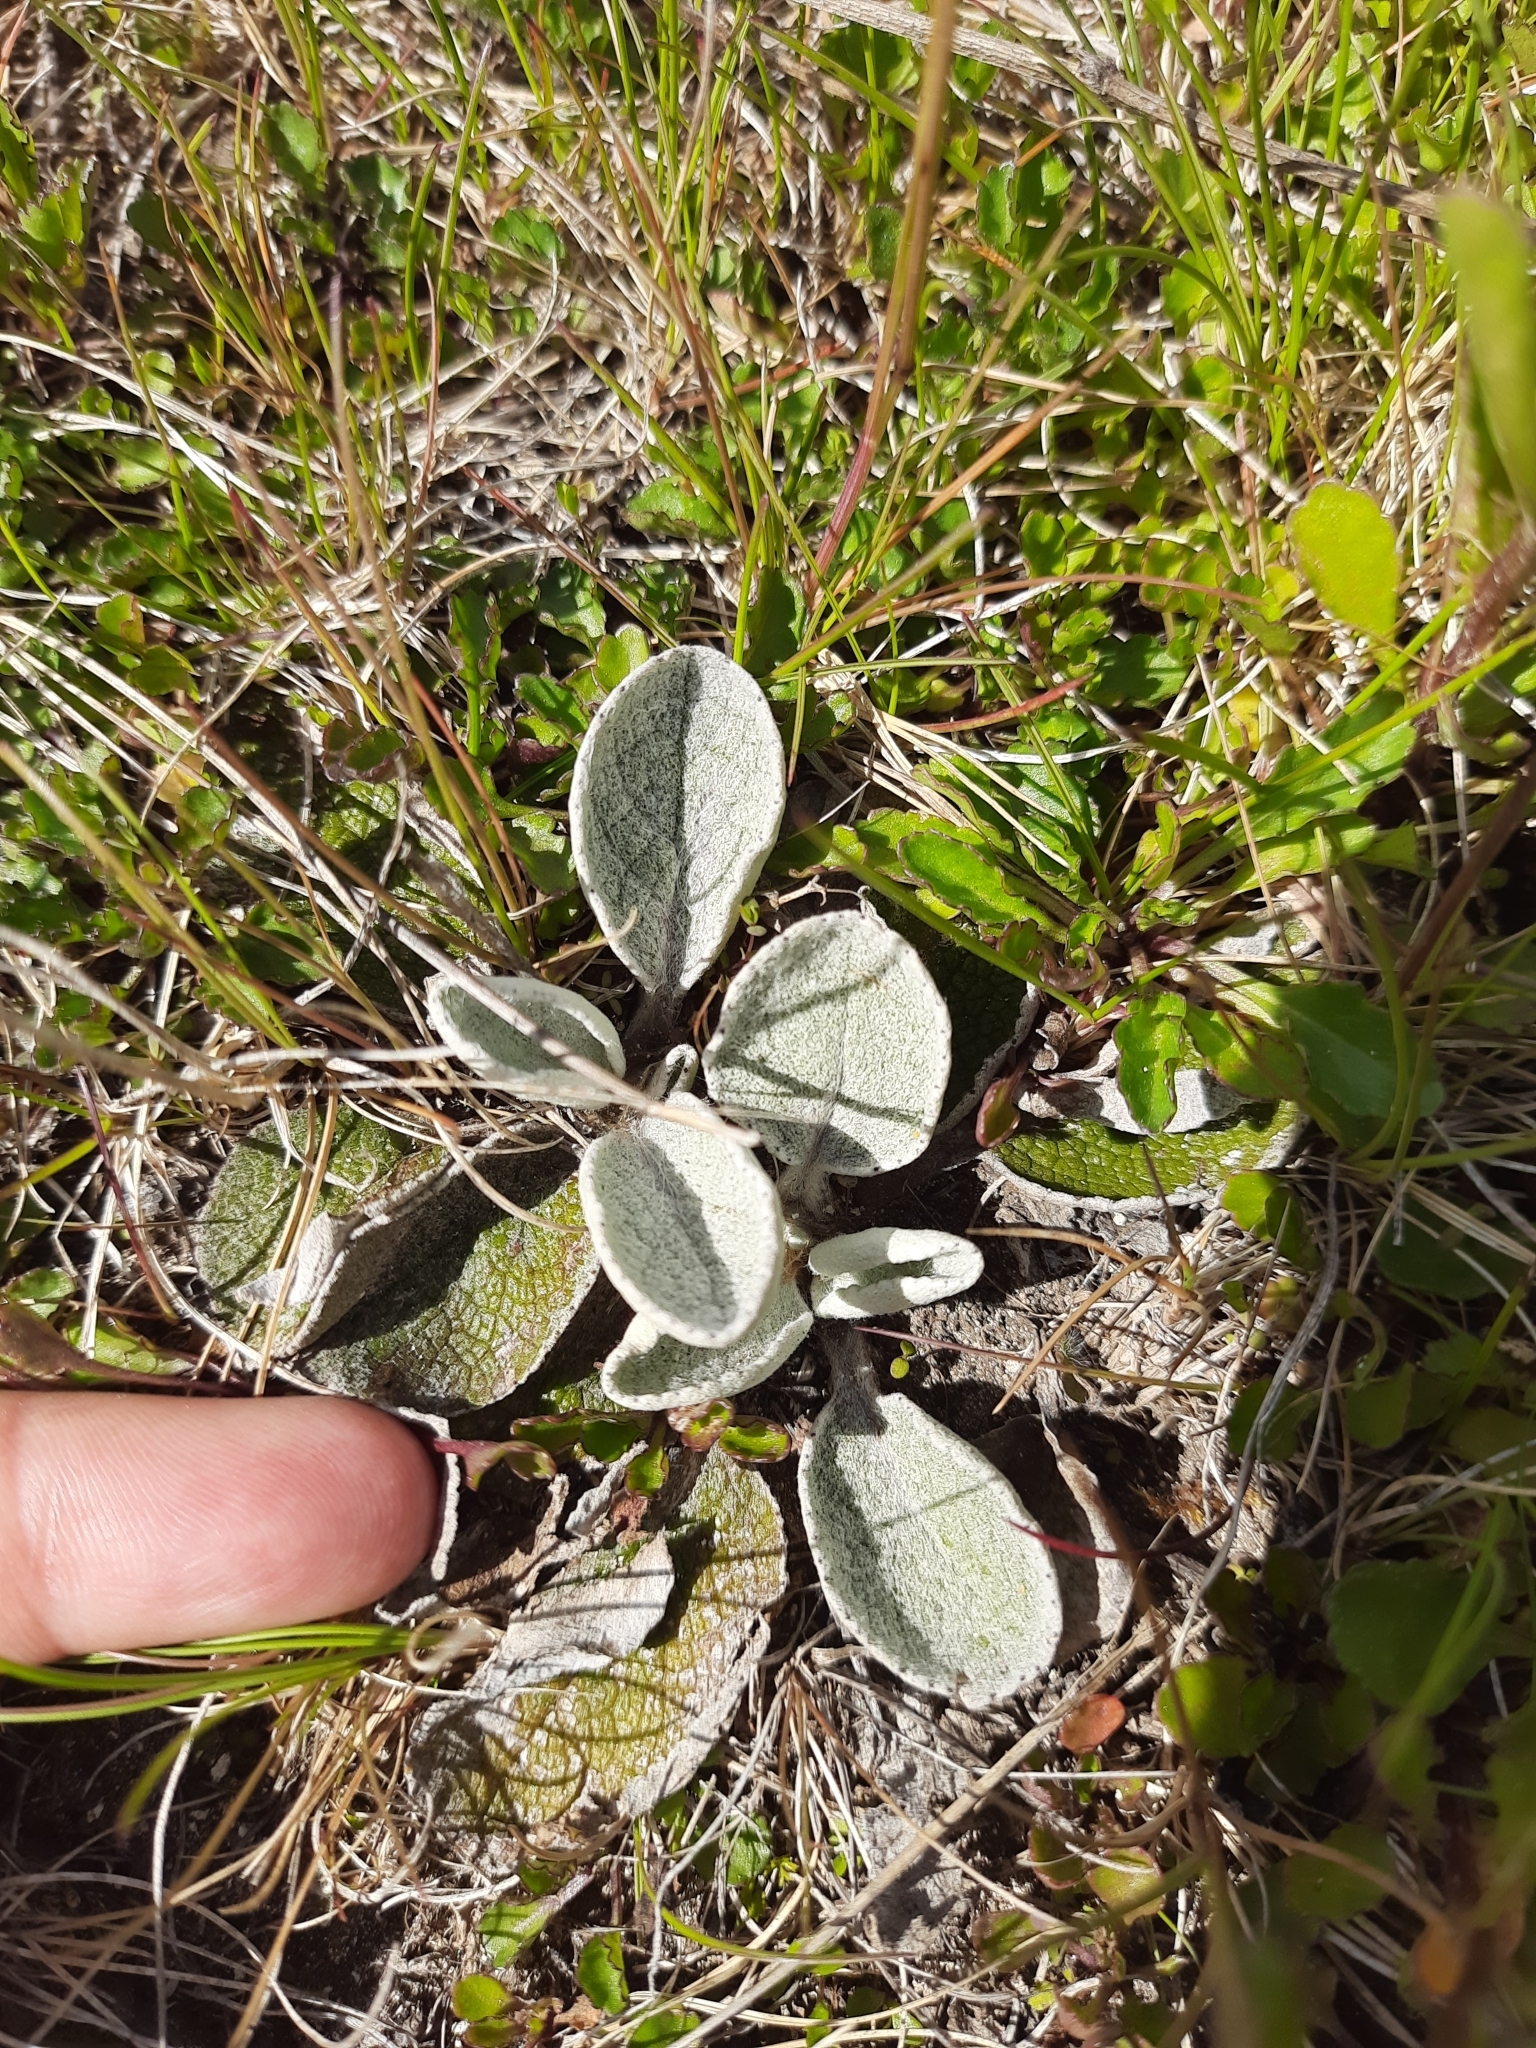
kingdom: Plantae
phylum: Tracheophyta
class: Magnoliopsida
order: Asterales
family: Asteraceae
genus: Brachyglottis
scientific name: Brachyglottis haastii
